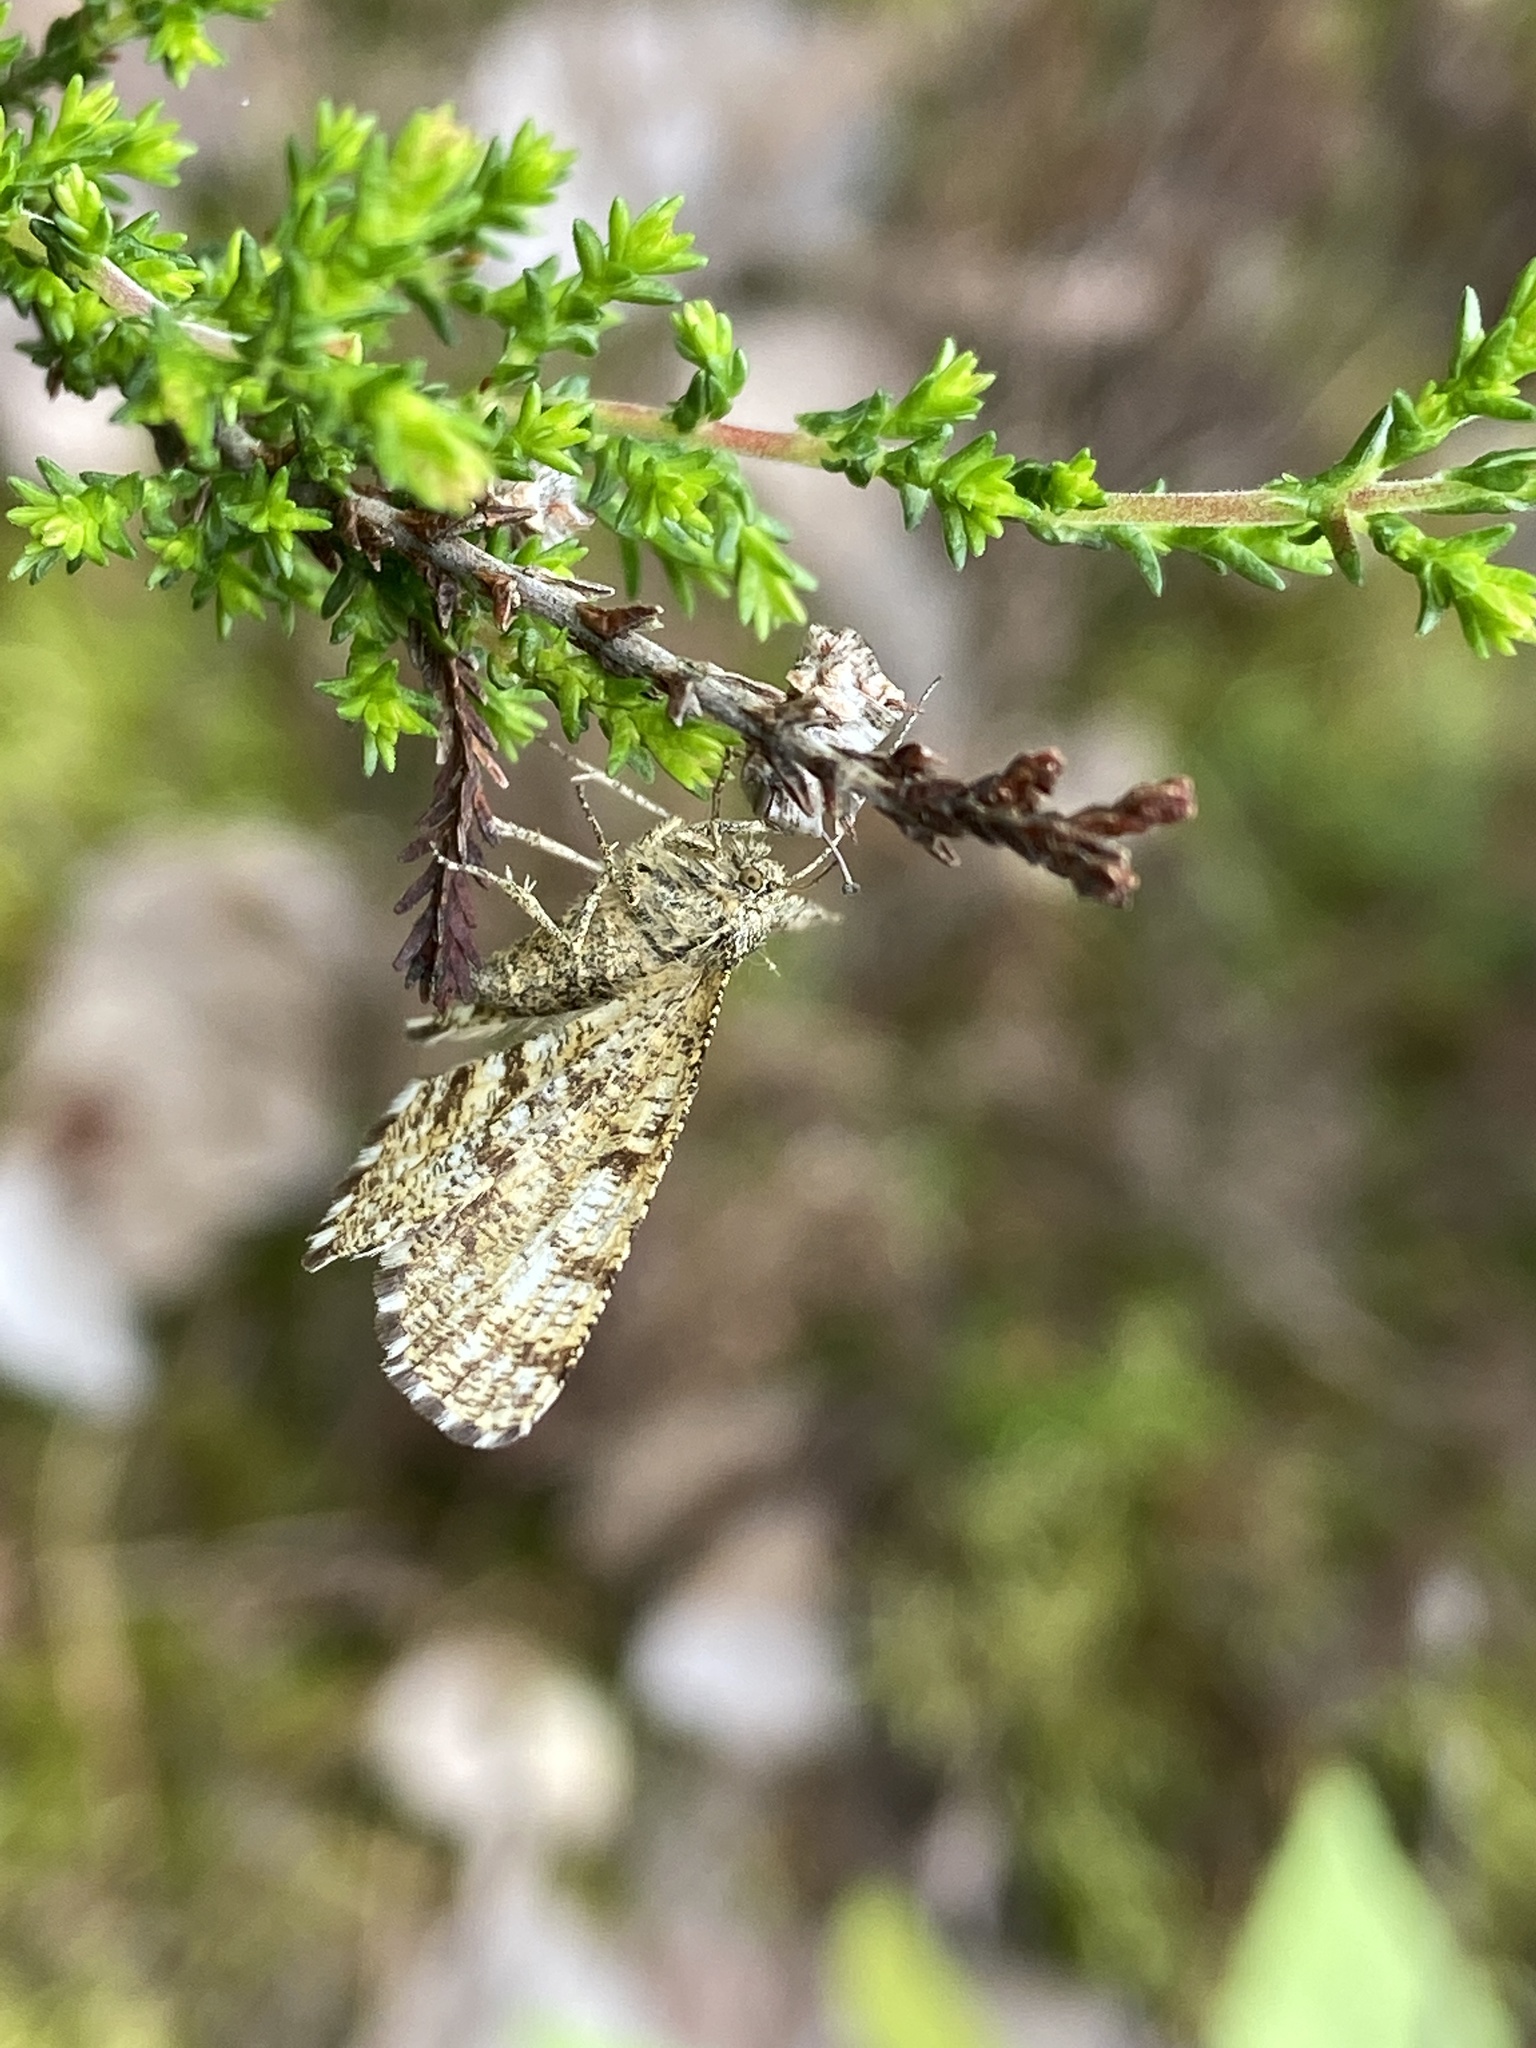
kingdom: Animalia
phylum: Arthropoda
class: Insecta
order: Lepidoptera
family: Geometridae
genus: Ematurga
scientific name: Ematurga atomaria
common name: Common heath
